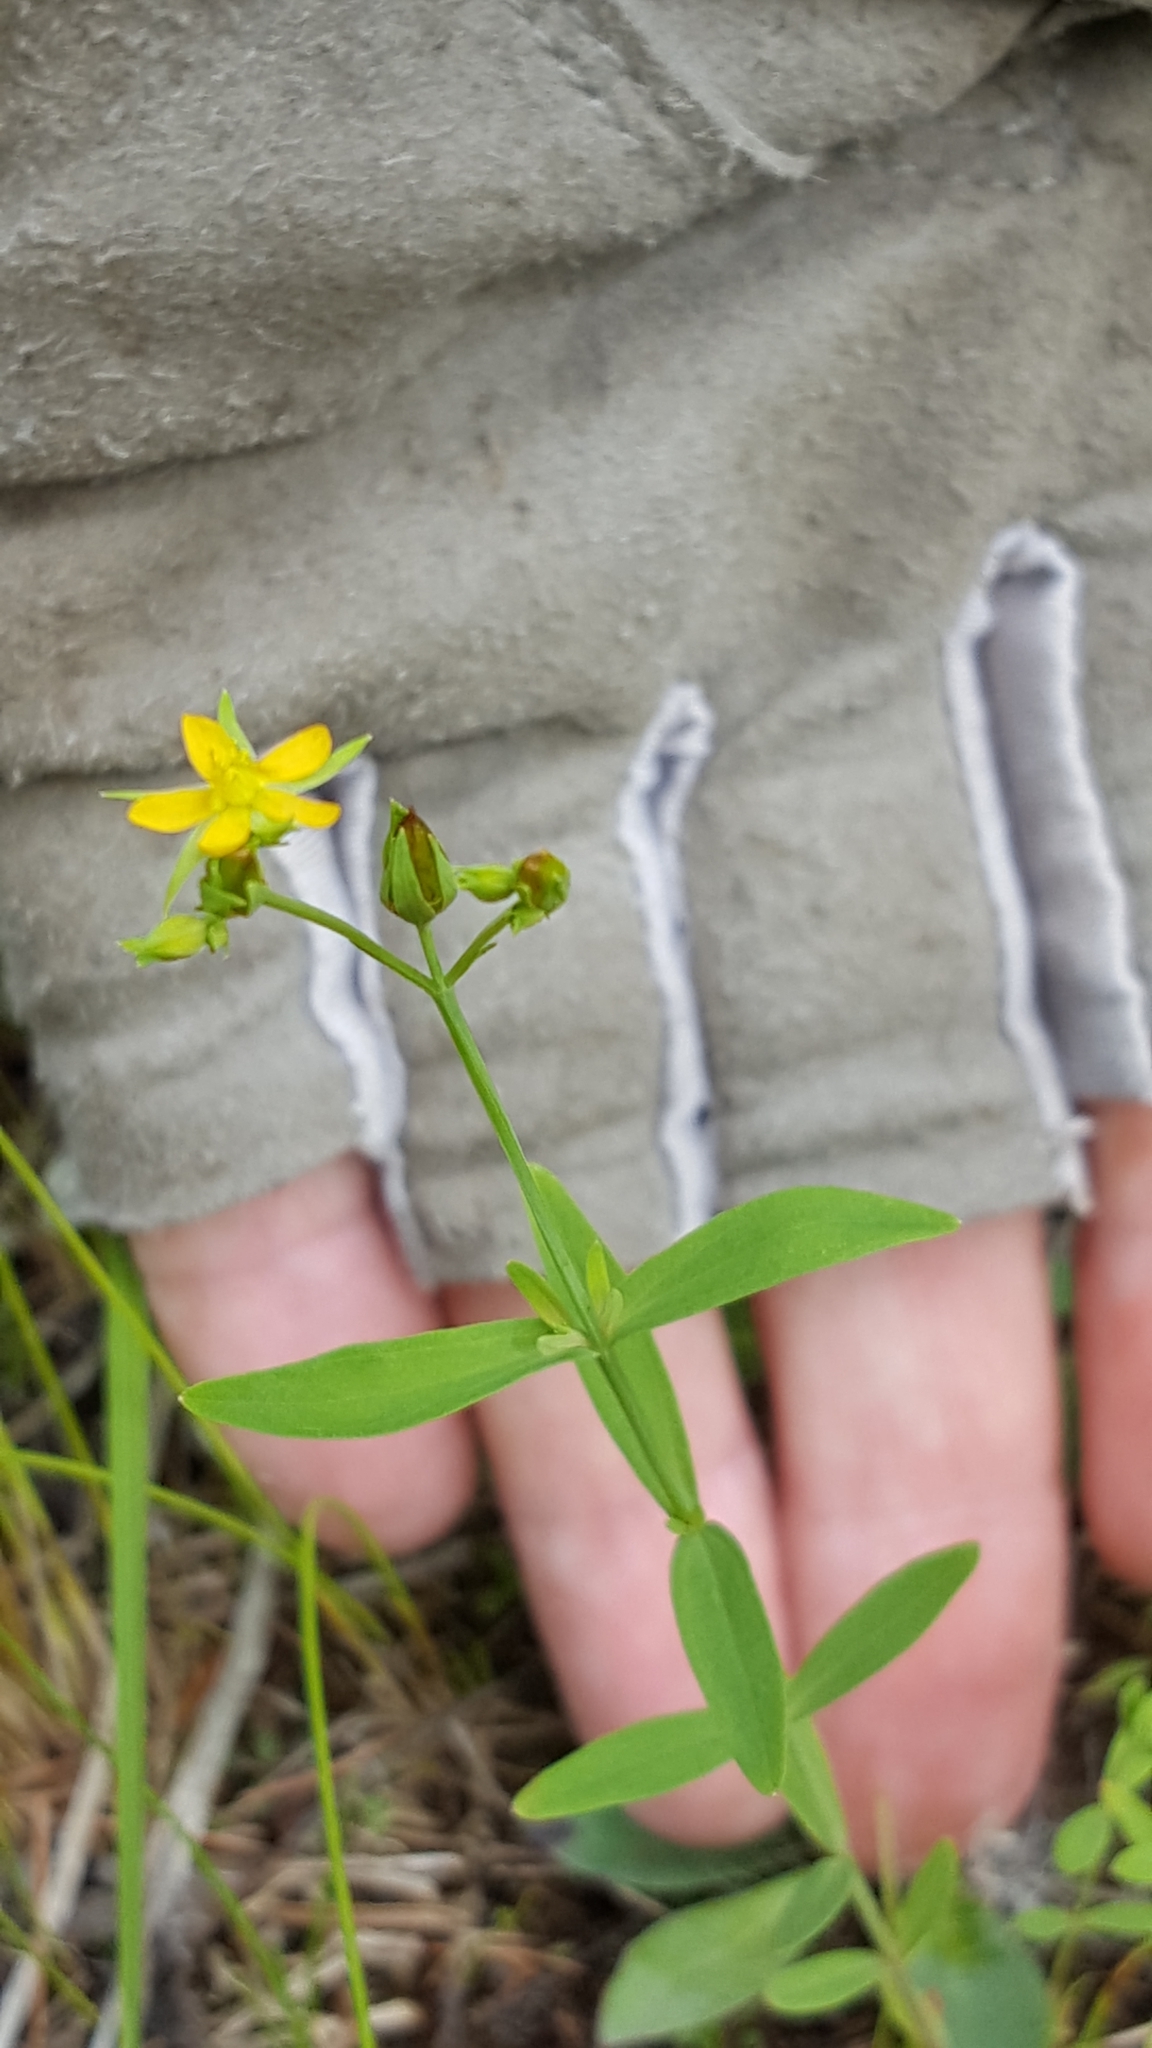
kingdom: Plantae
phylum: Tracheophyta
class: Magnoliopsida
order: Malpighiales
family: Hypericaceae
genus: Hypericum
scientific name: Hypericum majus
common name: Greater canadian st. john's-wort
